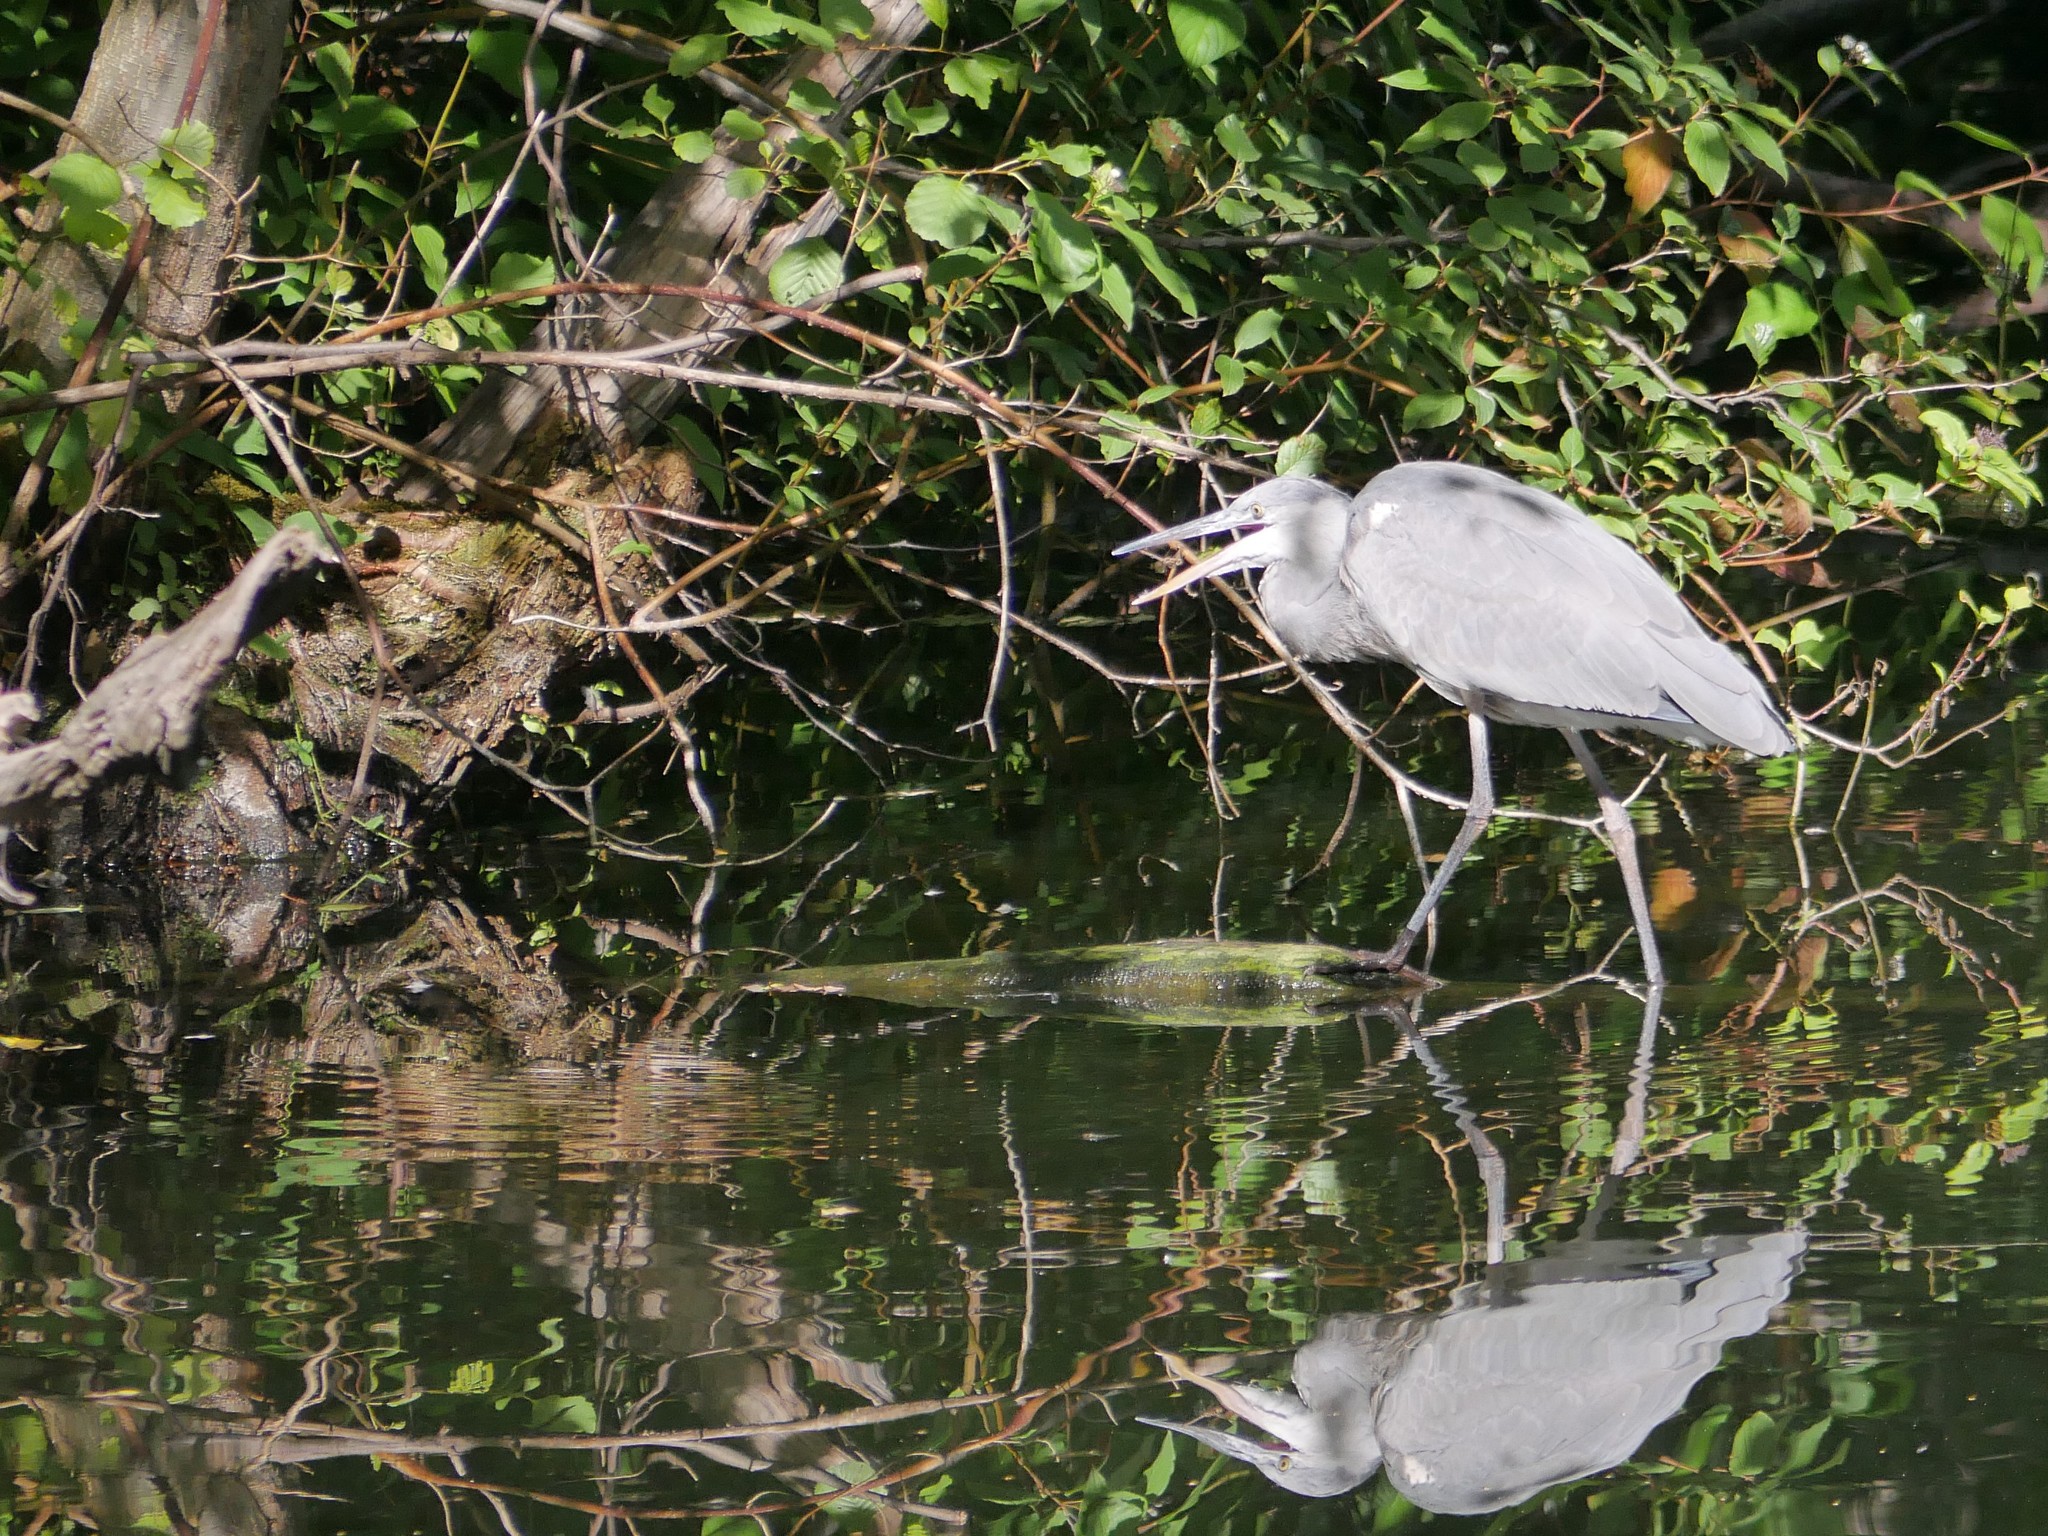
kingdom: Animalia
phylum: Chordata
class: Aves
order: Pelecaniformes
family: Ardeidae
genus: Ardea
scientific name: Ardea cinerea
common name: Grey heron
